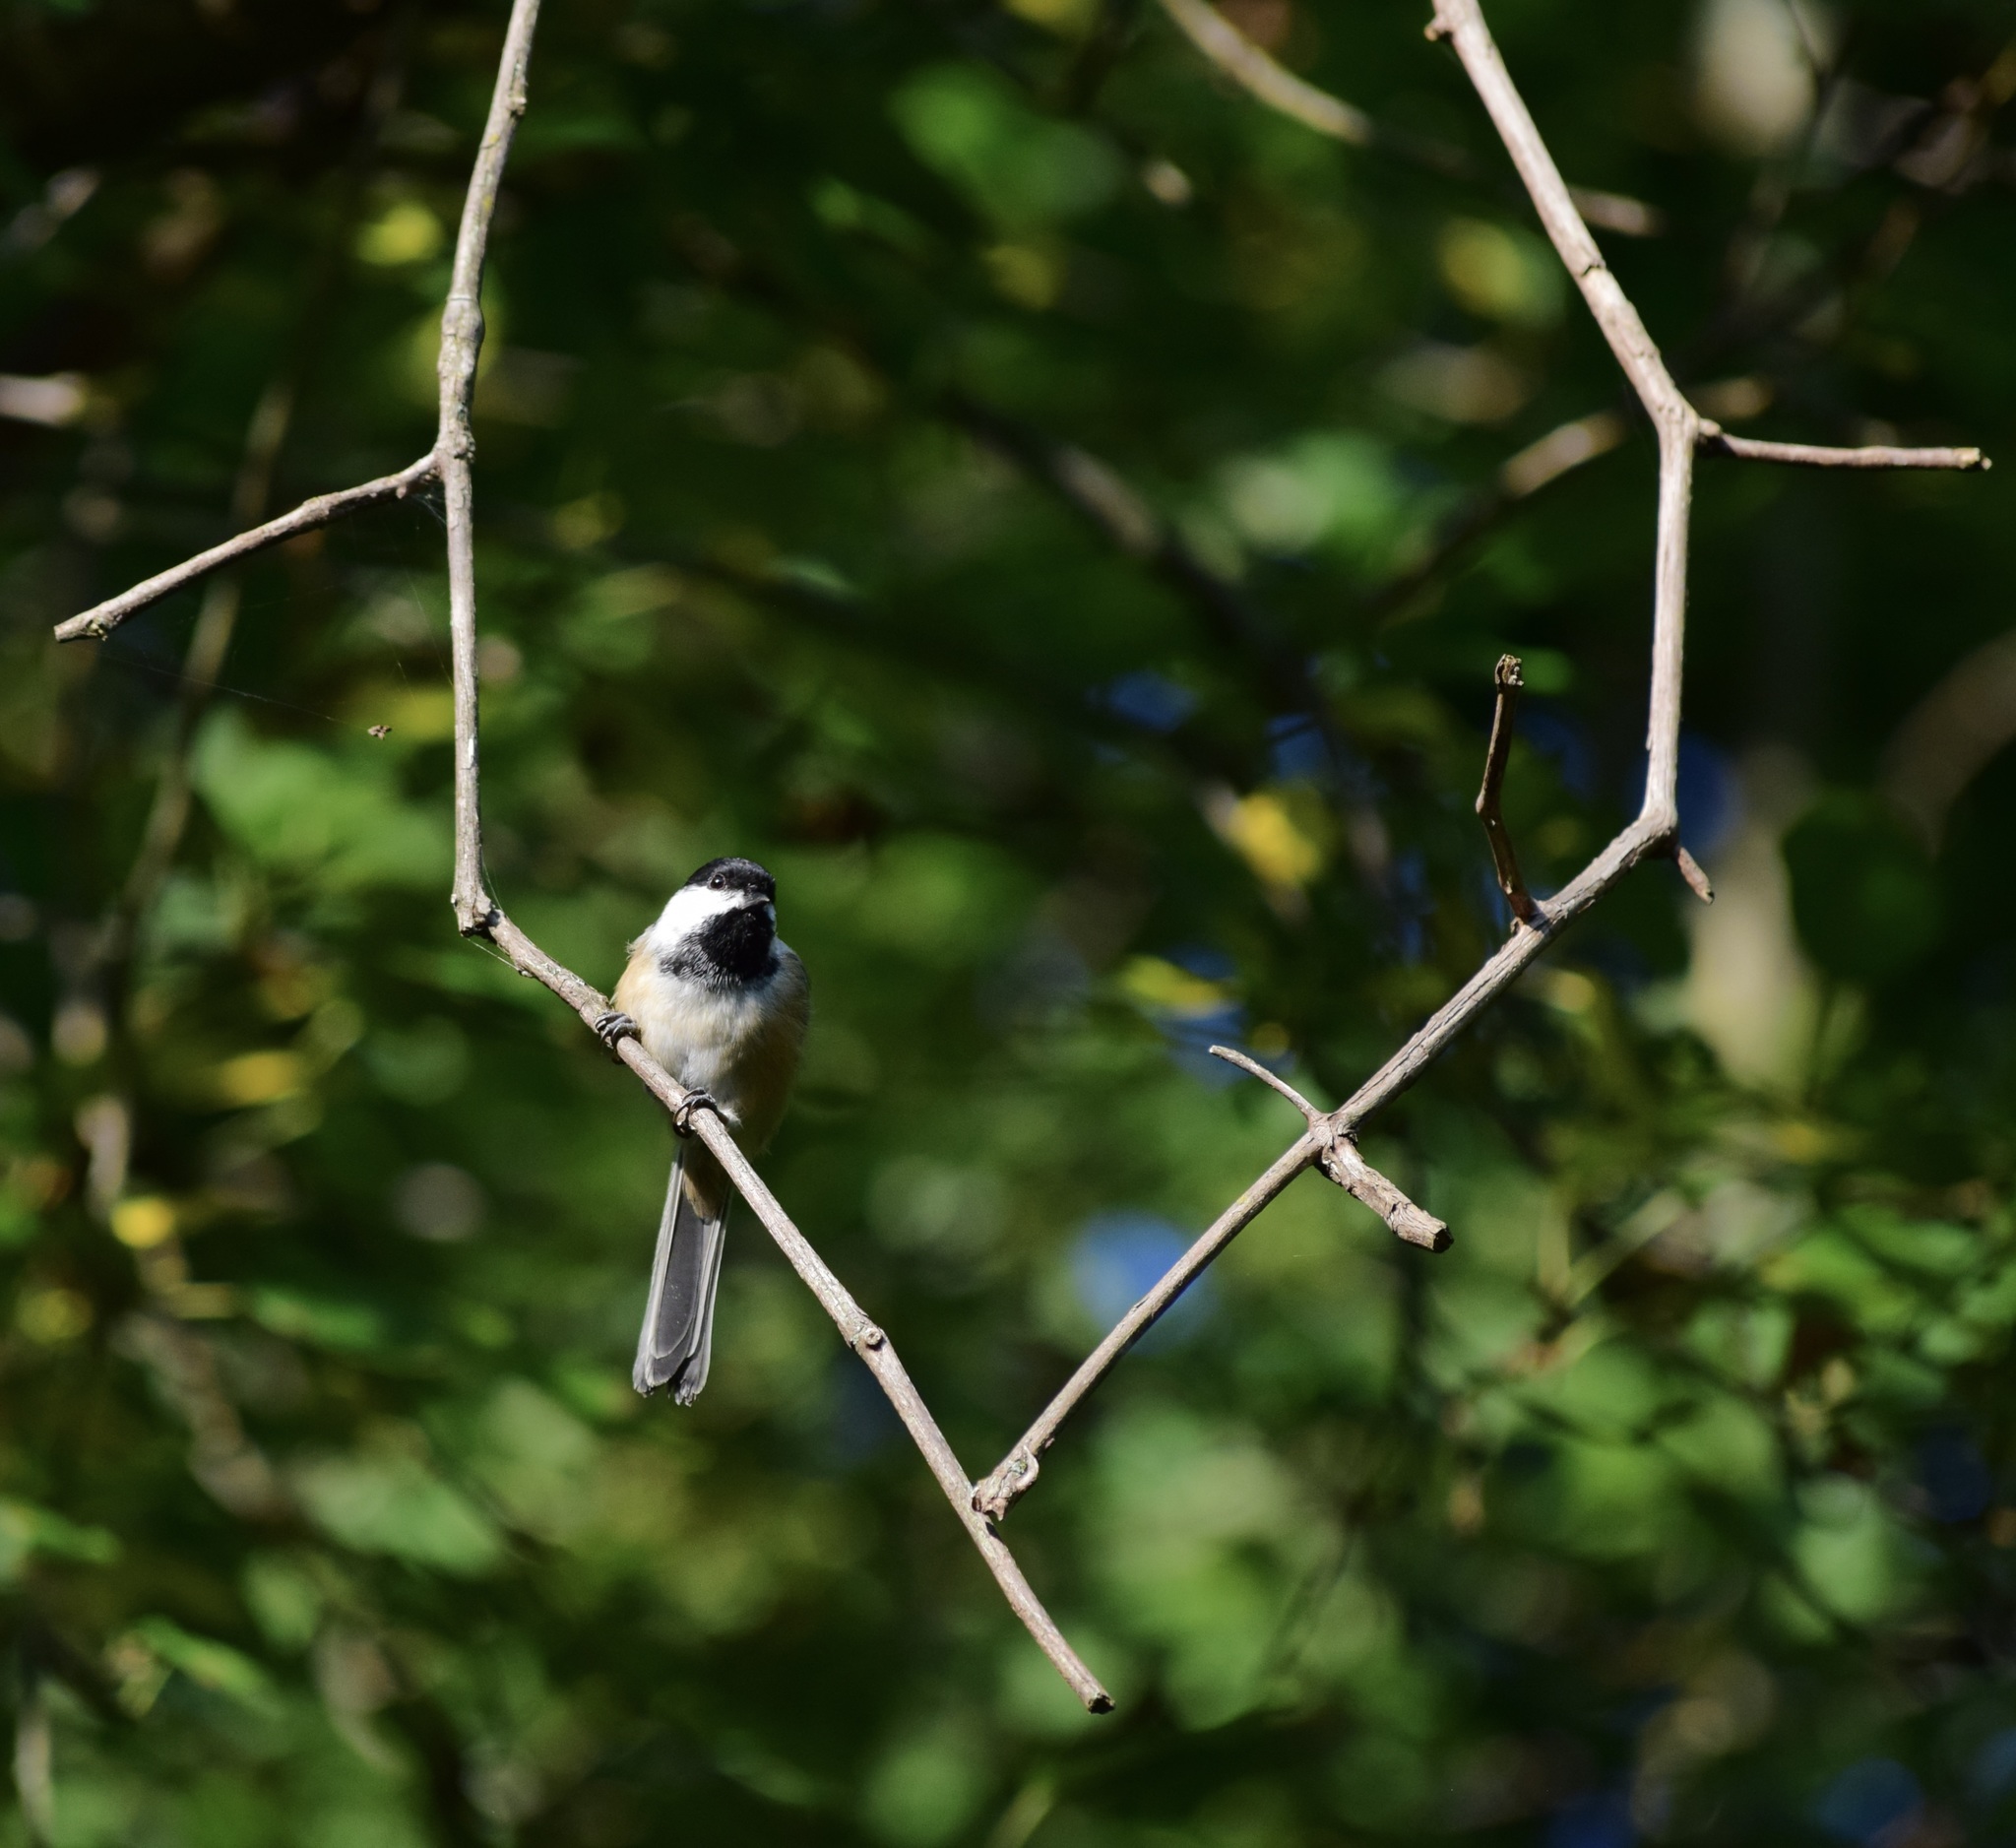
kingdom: Animalia
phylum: Chordata
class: Aves
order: Passeriformes
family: Paridae
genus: Poecile
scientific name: Poecile atricapillus
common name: Black-capped chickadee
